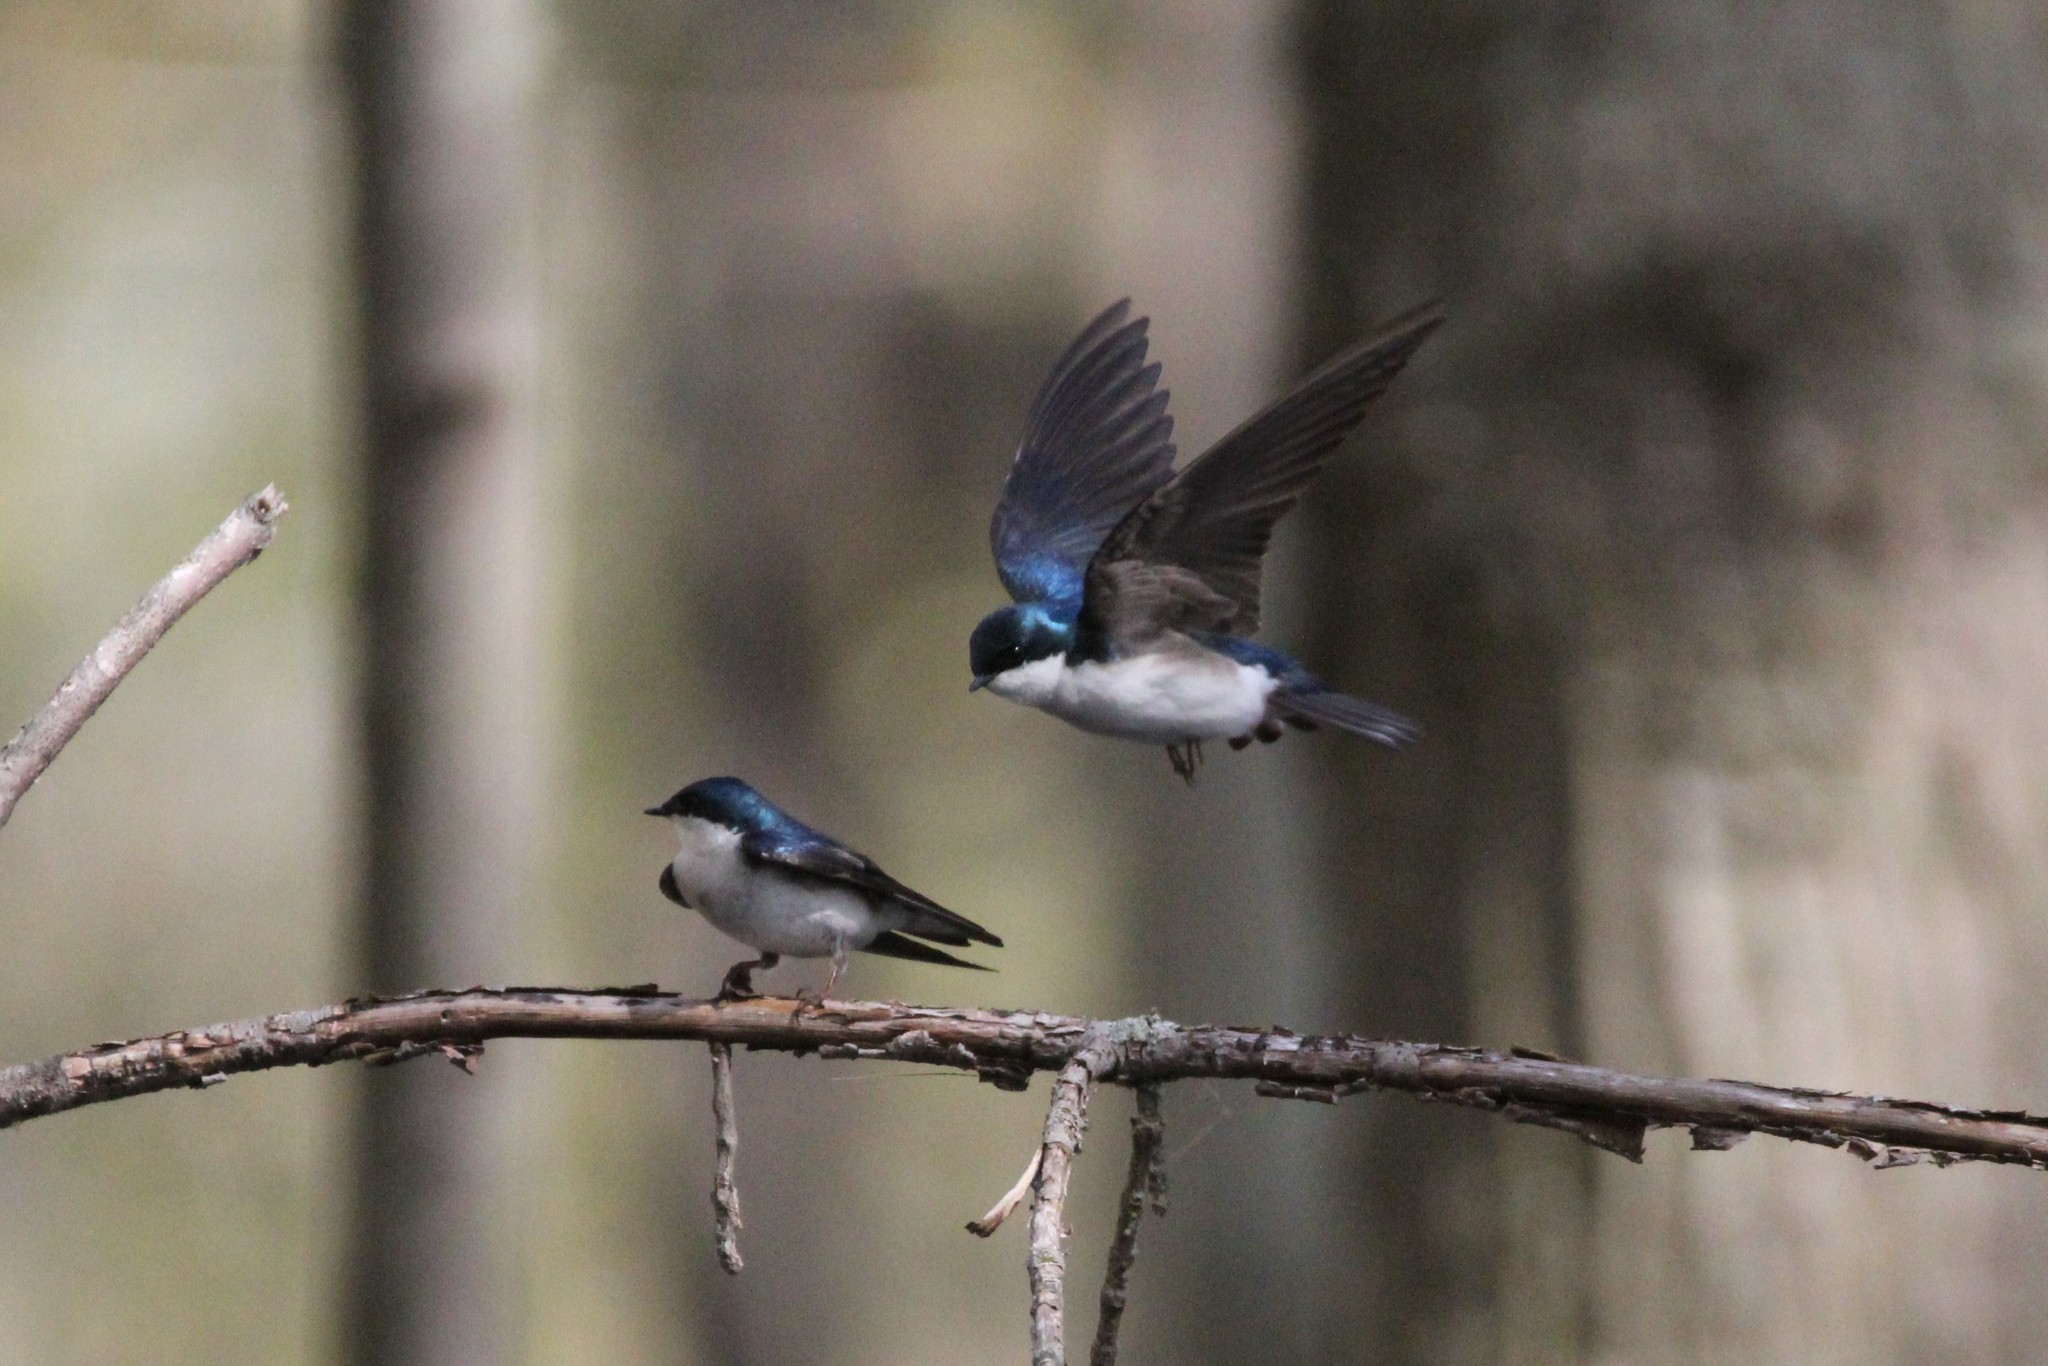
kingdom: Animalia
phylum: Chordata
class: Aves
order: Passeriformes
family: Hirundinidae
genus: Tachycineta
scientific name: Tachycineta bicolor
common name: Tree swallow
